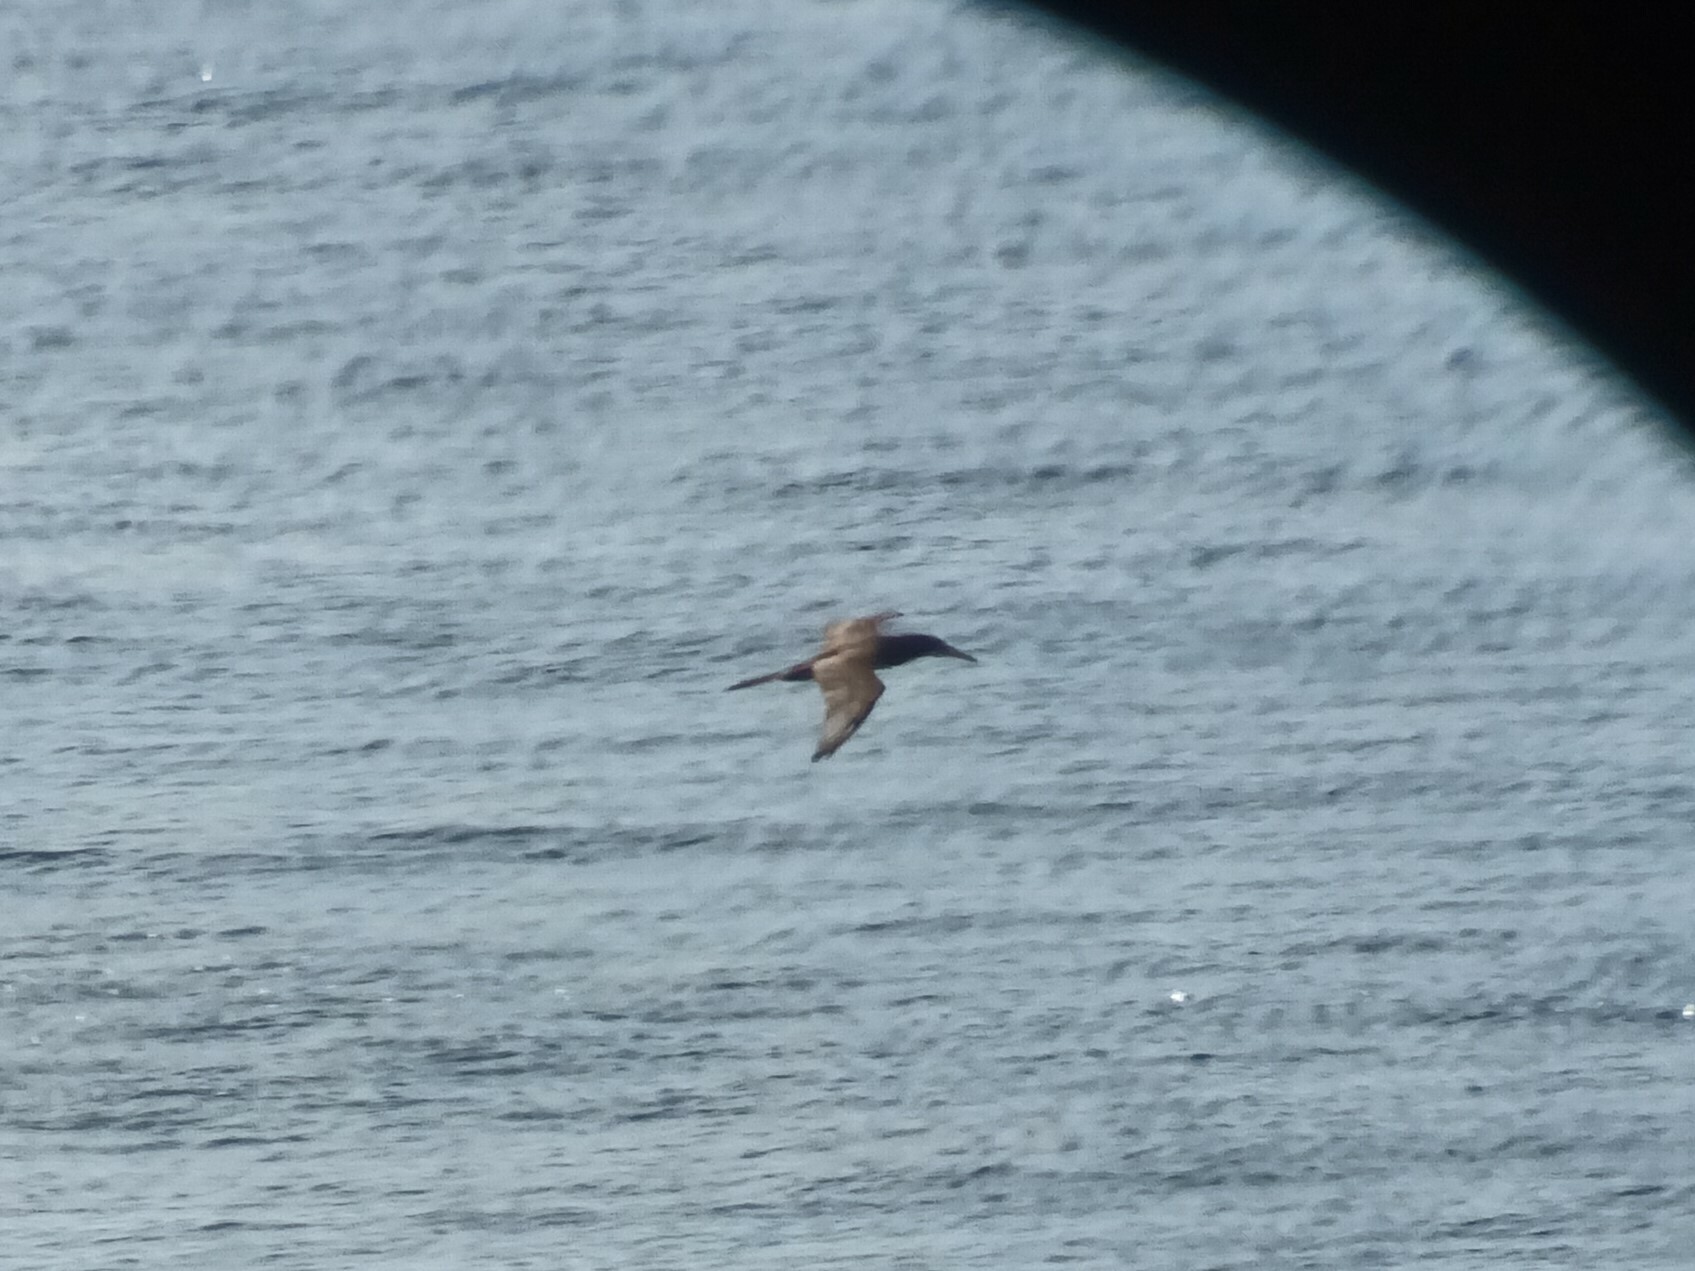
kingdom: Animalia
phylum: Chordata
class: Aves
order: Suliformes
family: Sulidae
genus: Sula
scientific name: Sula leucogaster
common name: Brown booby
